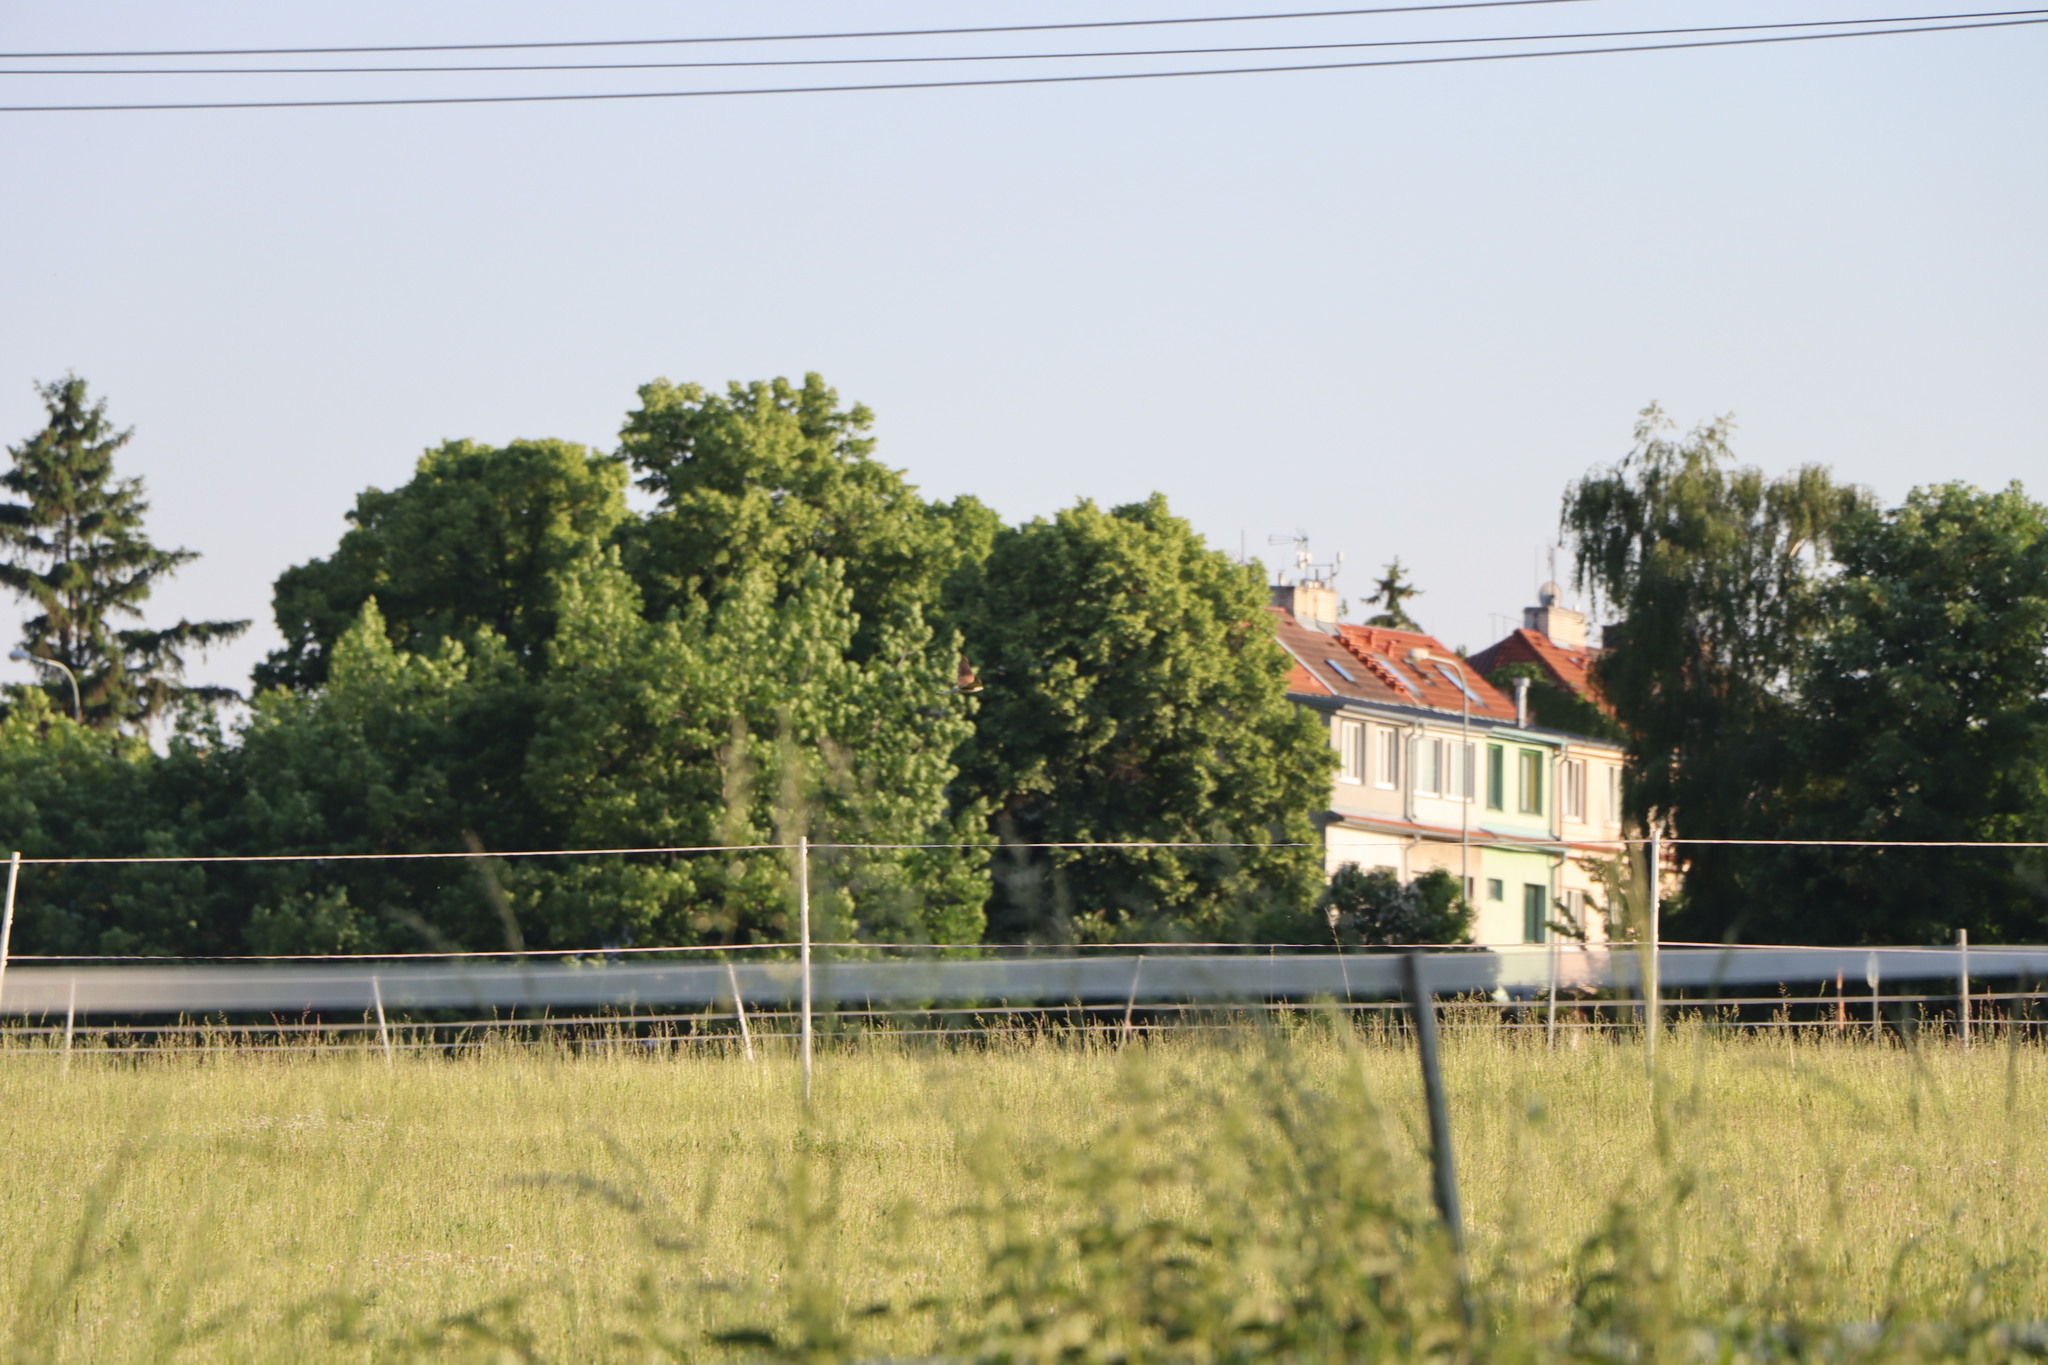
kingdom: Animalia
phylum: Chordata
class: Aves
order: Falconiformes
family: Falconidae
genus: Falco
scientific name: Falco tinnunculus
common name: Common kestrel
